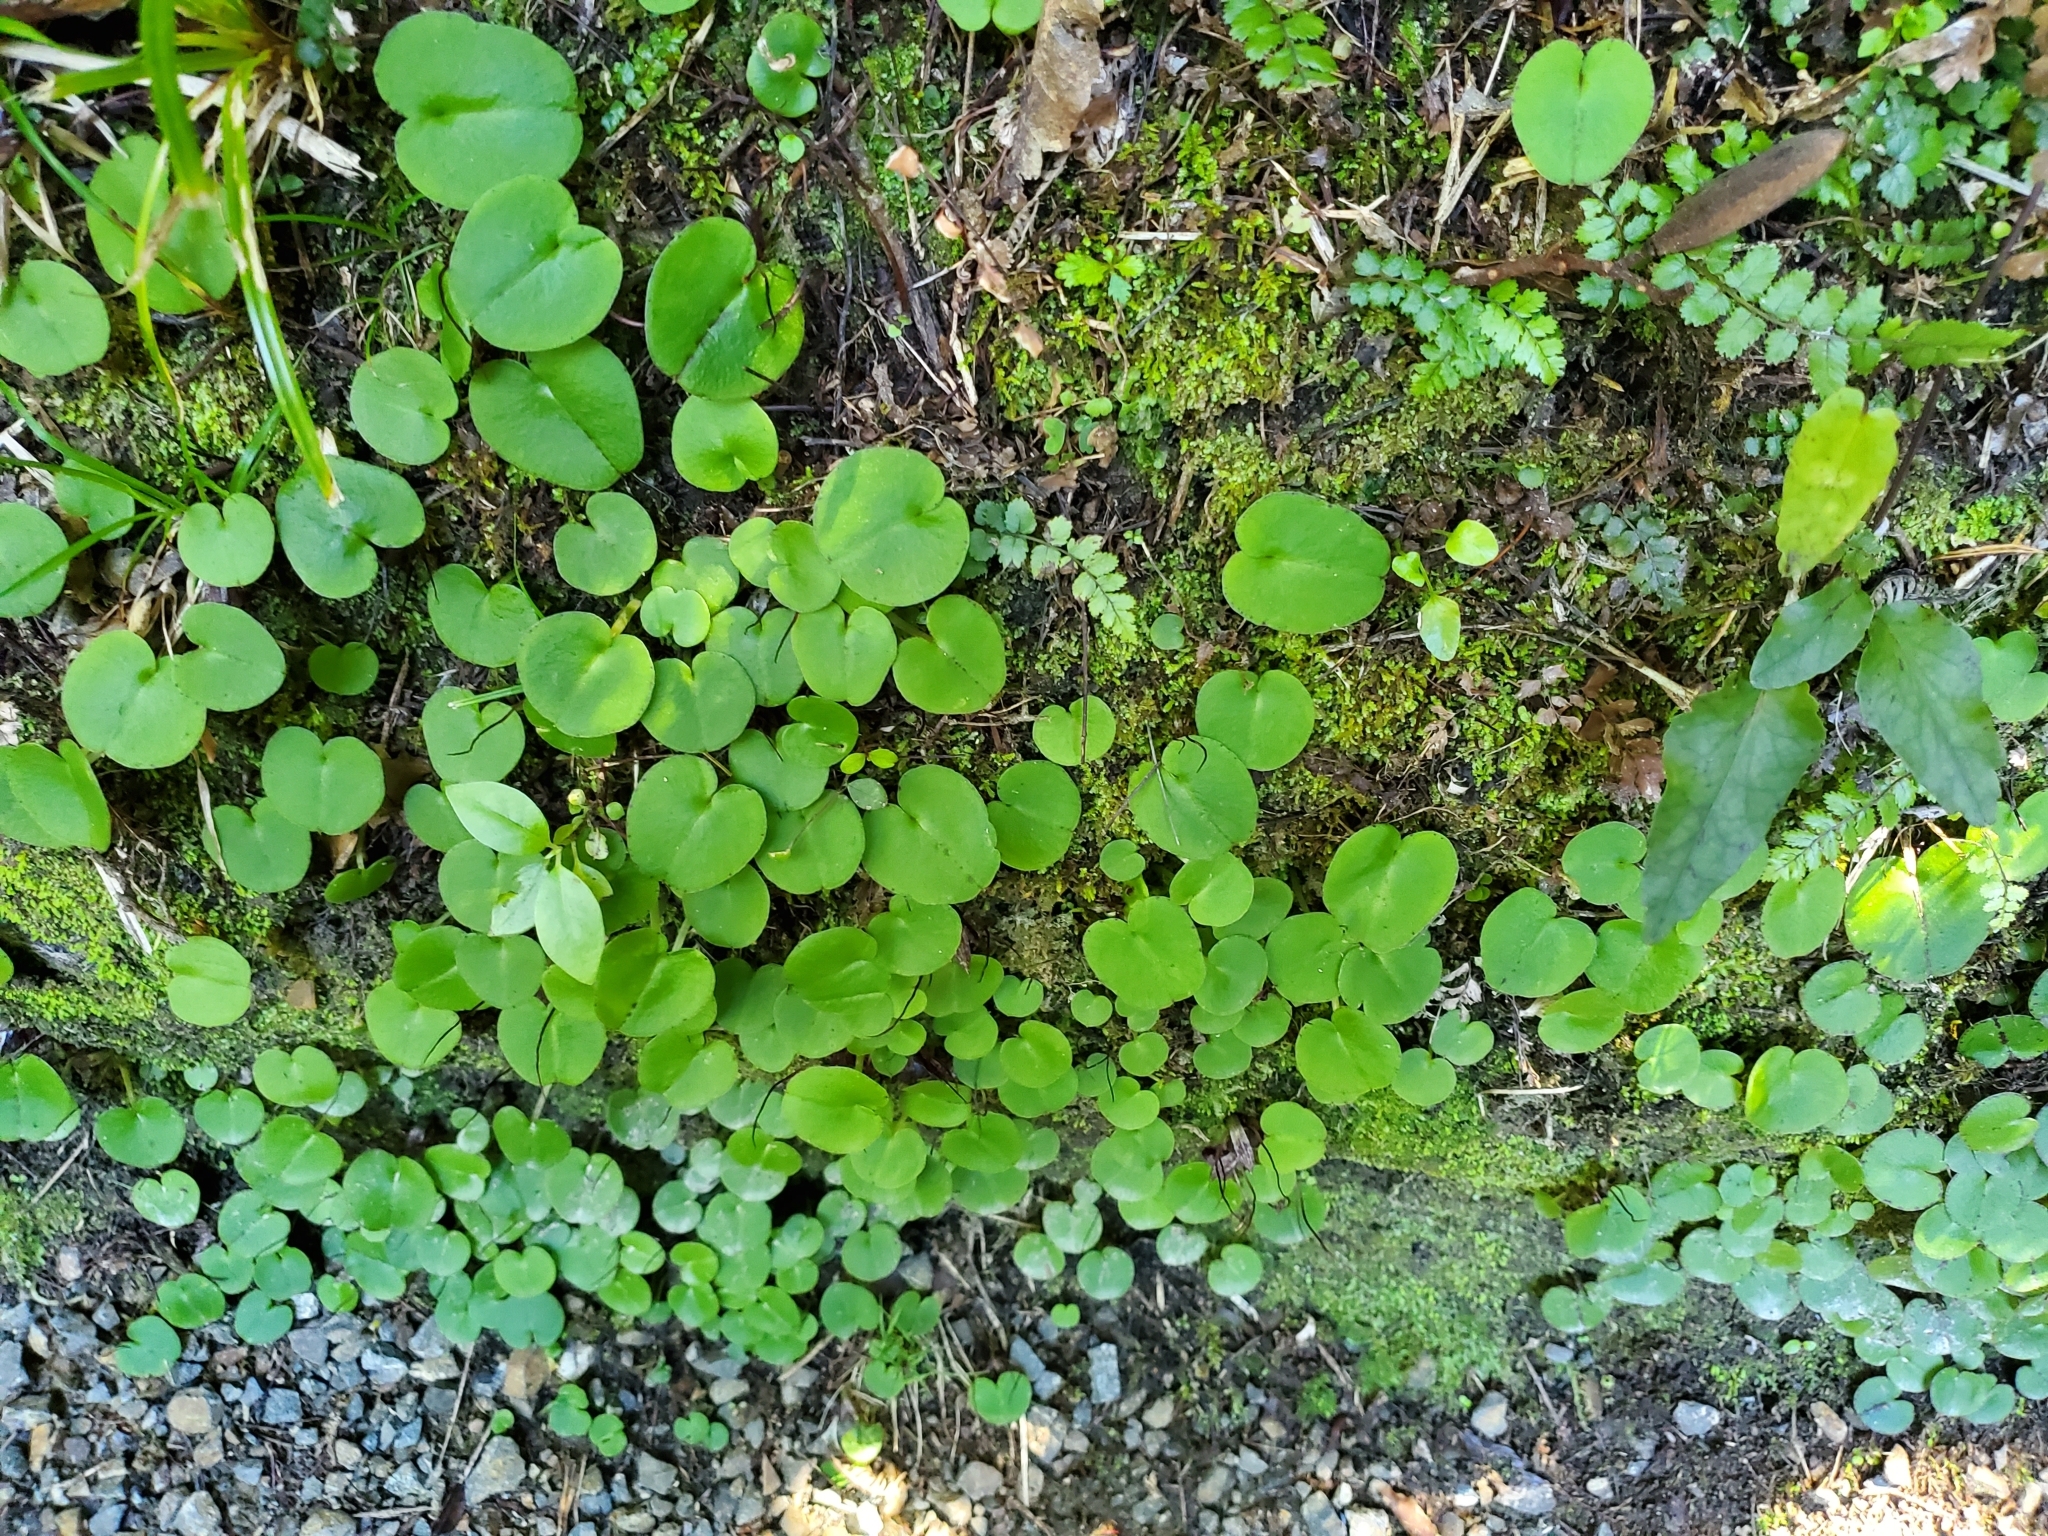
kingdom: Plantae
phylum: Tracheophyta
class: Liliopsida
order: Asparagales
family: Orchidaceae
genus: Corybas
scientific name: Corybas macranthus
